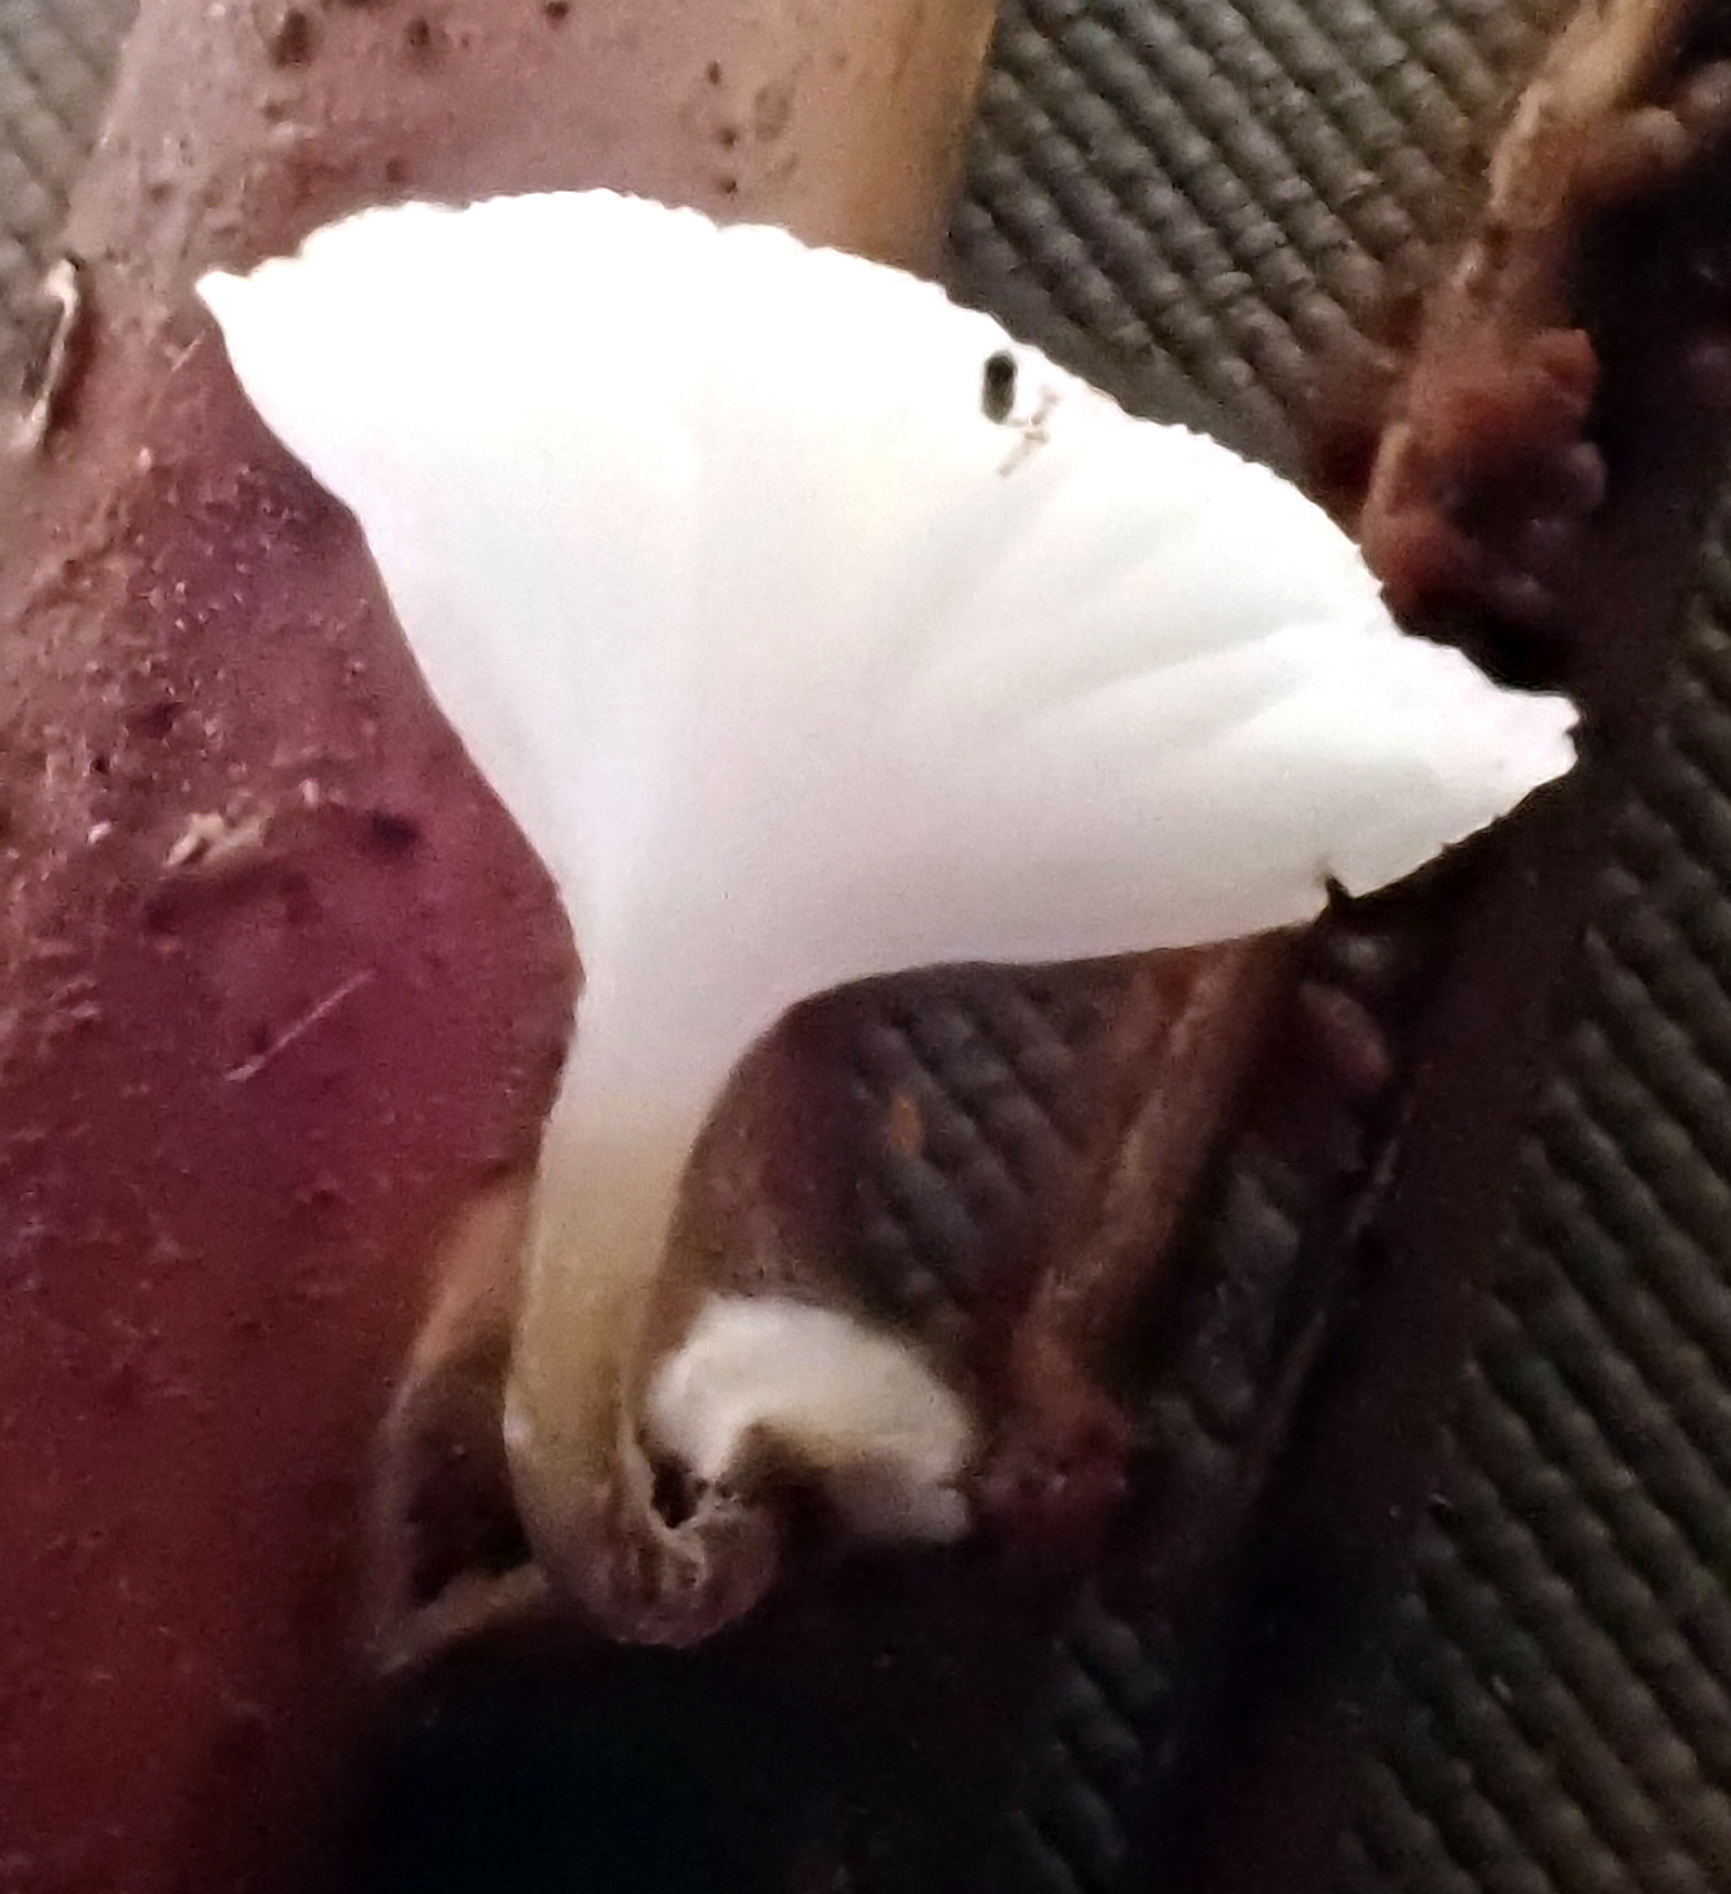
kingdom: Fungi
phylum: Basidiomycota
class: Agaricomycetes
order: Agaricales
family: Porotheleaceae
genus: Porotheleum
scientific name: Porotheleum albodescendens
